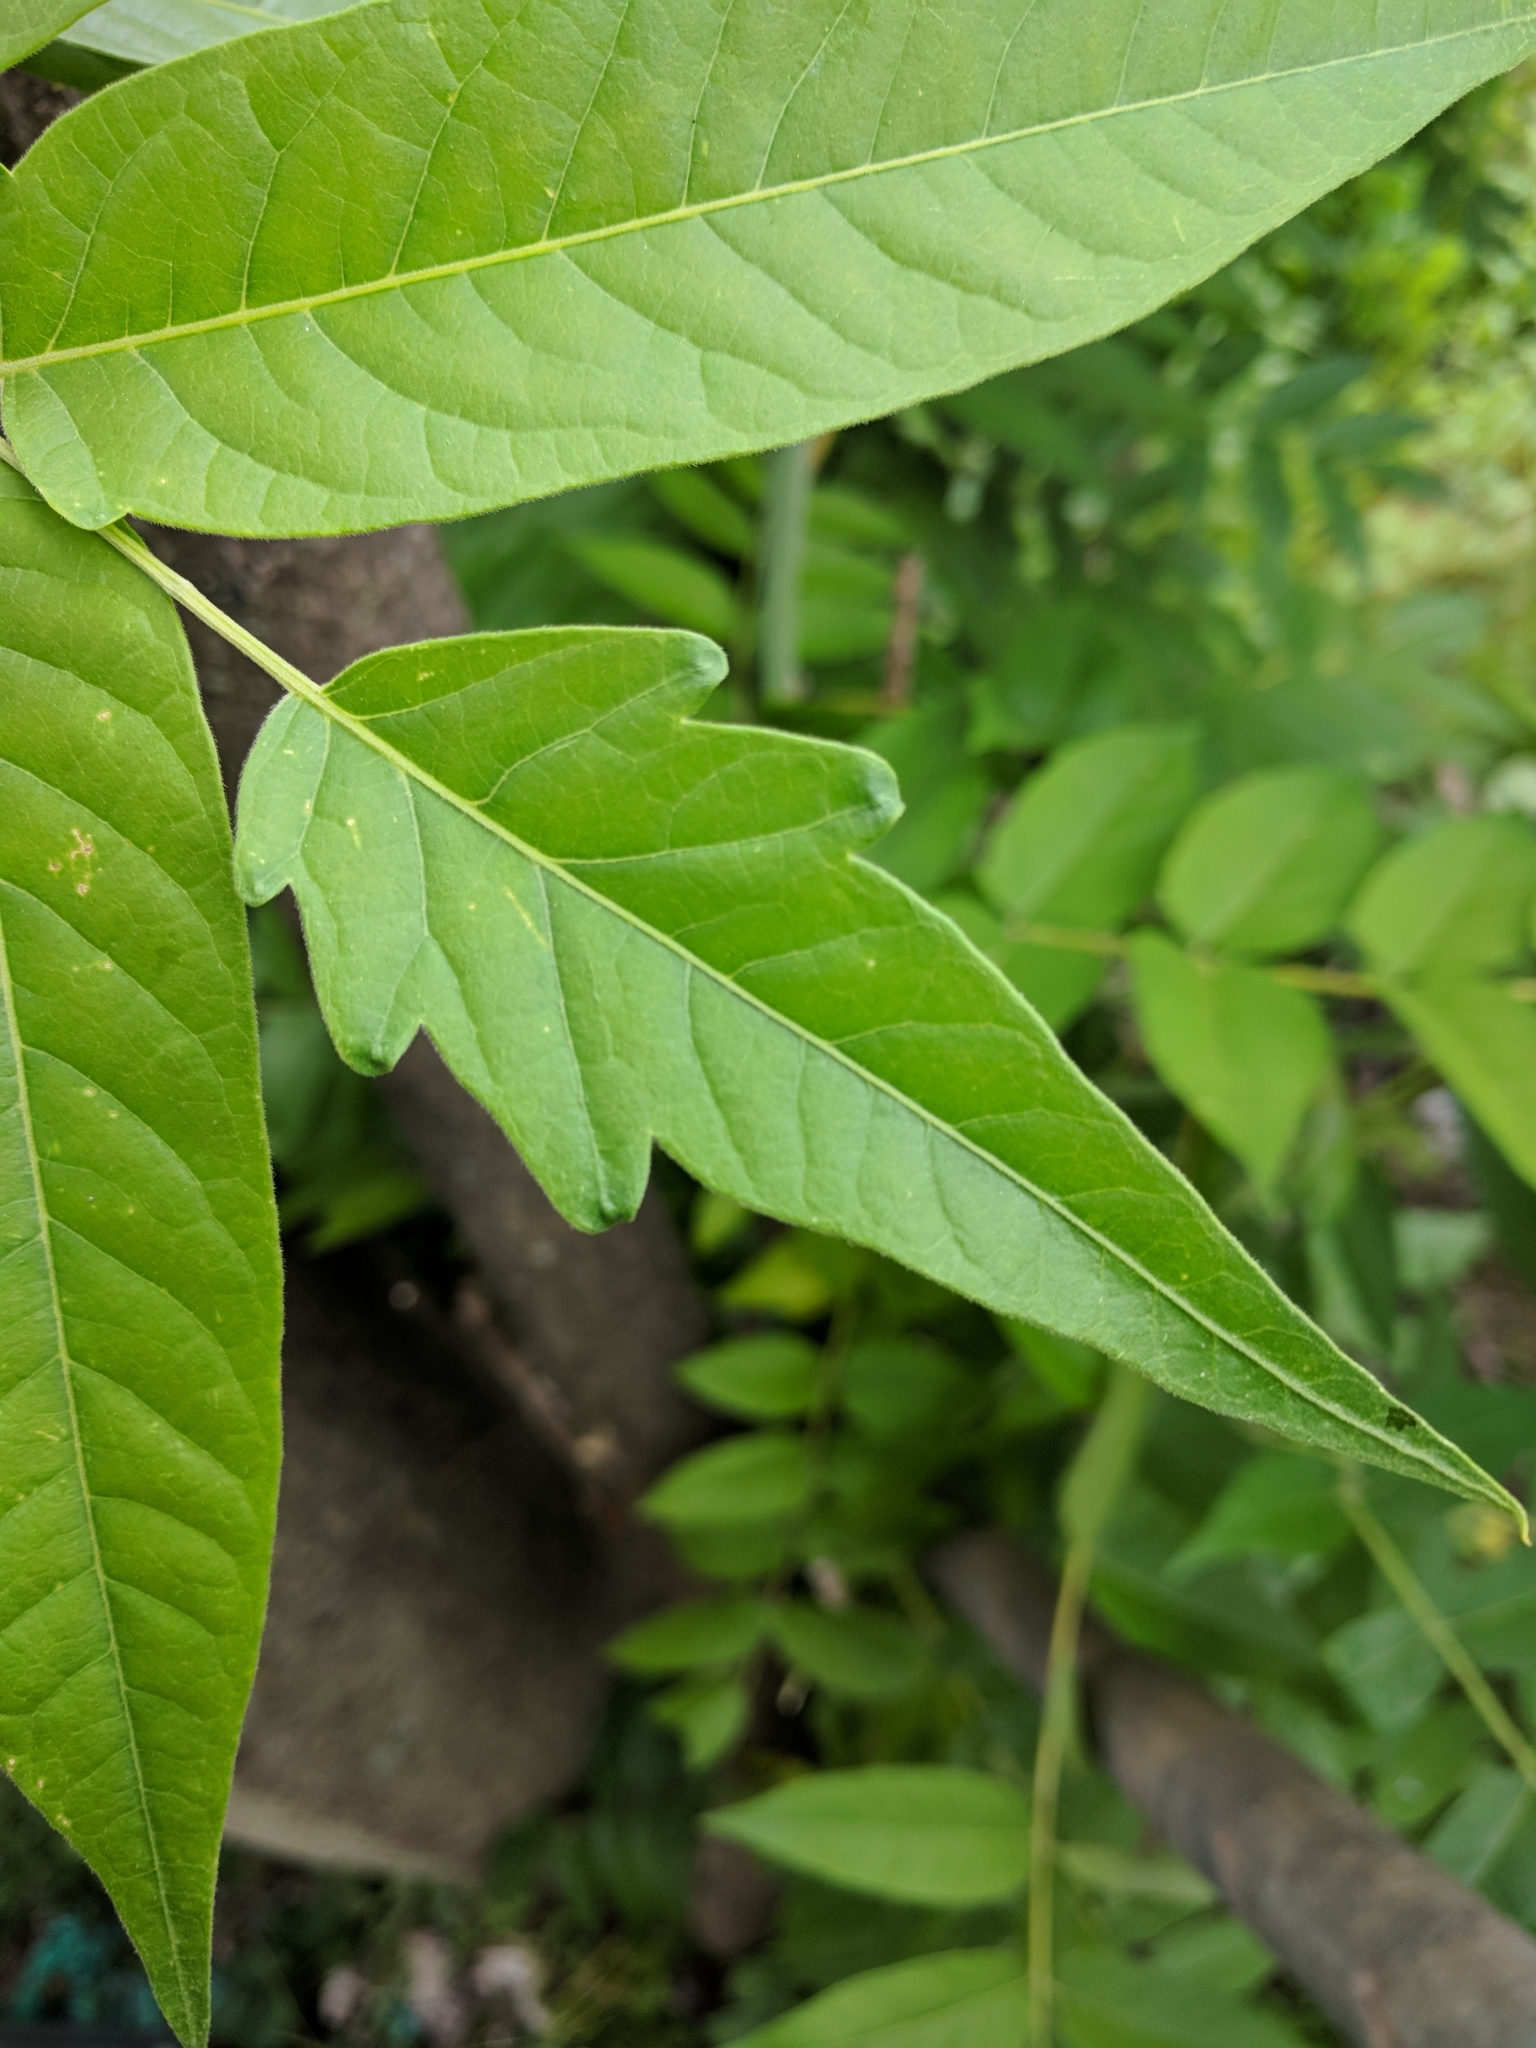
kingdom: Plantae
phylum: Tracheophyta
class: Magnoliopsida
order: Sapindales
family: Simaroubaceae
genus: Ailanthus
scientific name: Ailanthus altissima
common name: Tree-of-heaven
